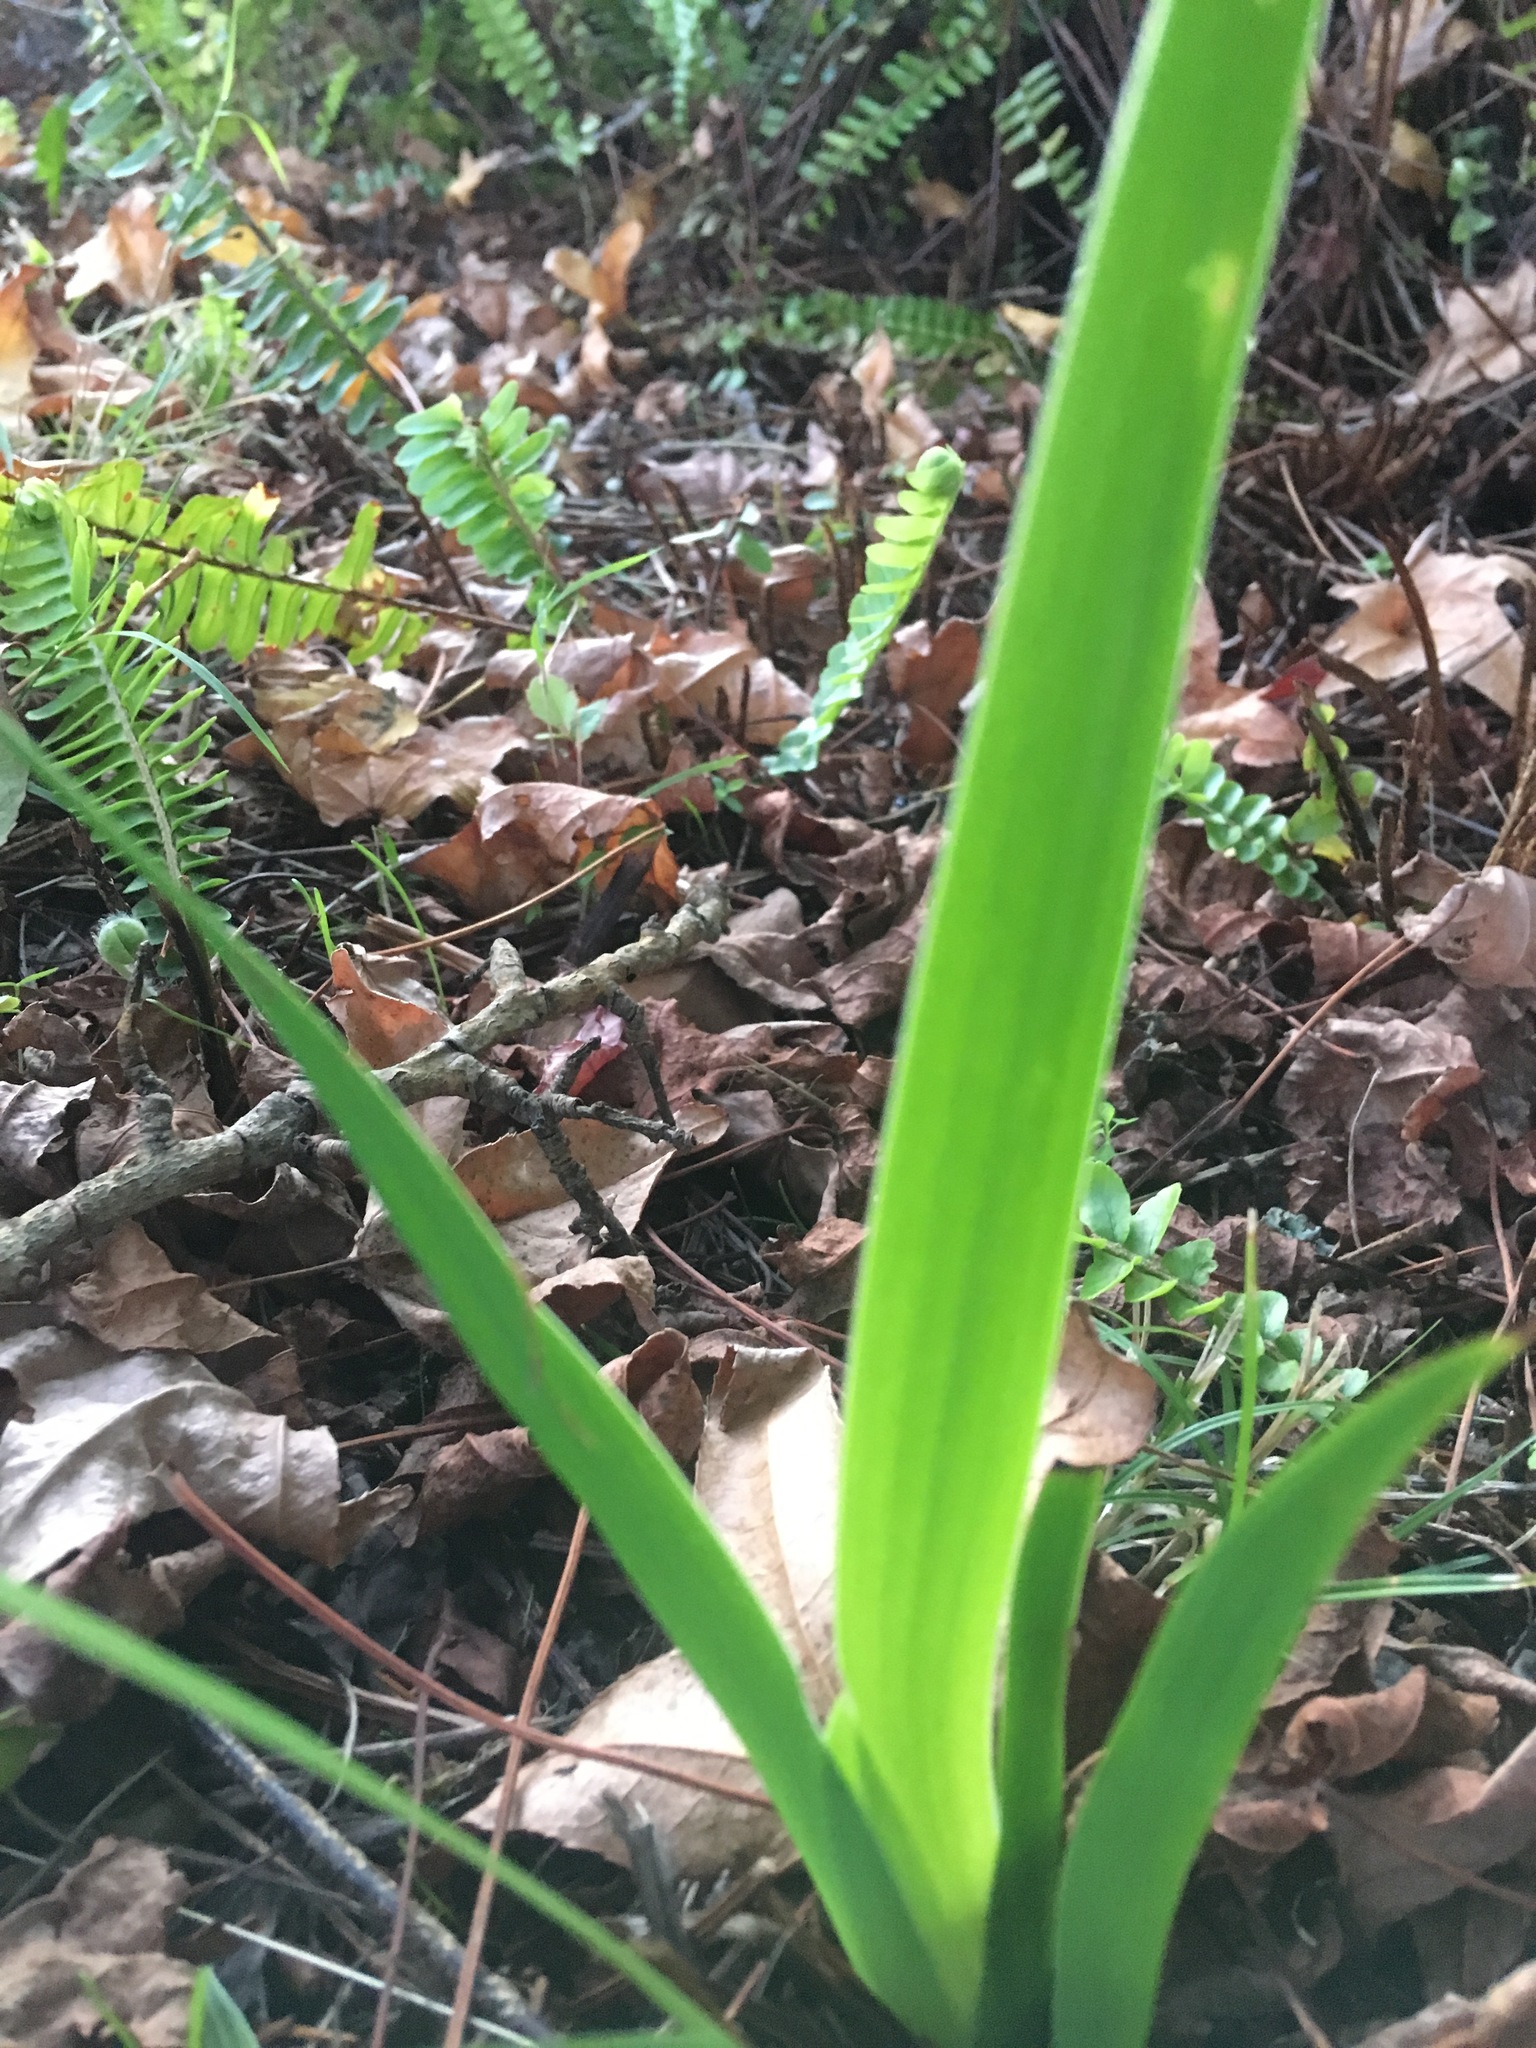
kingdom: Plantae
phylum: Tracheophyta
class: Liliopsida
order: Asparagales
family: Iridaceae
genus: Aristea
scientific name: Aristea ecklonii
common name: Blue corn-lily
